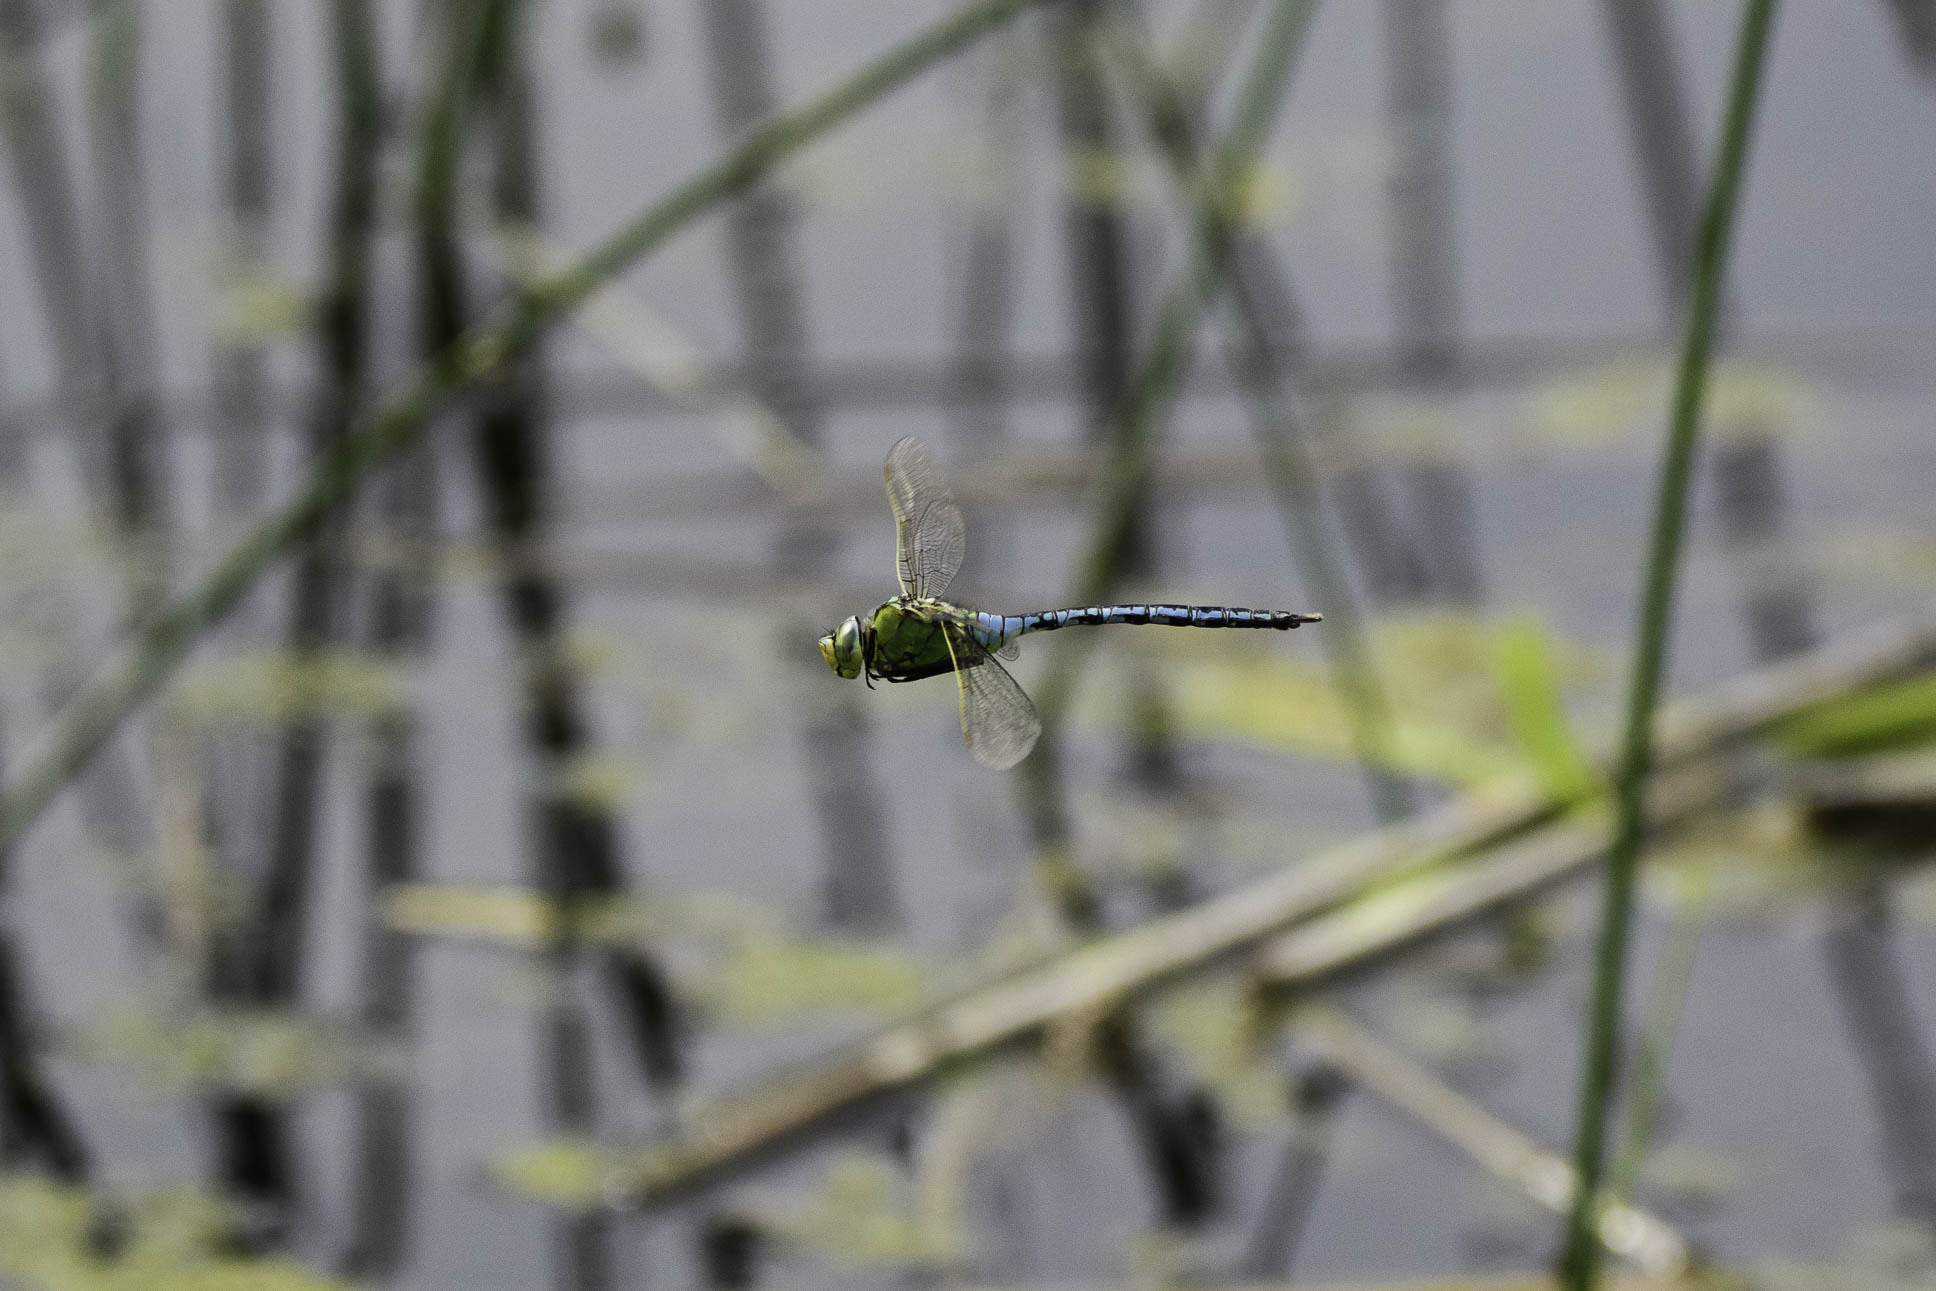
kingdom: Animalia
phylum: Arthropoda
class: Insecta
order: Odonata
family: Aeshnidae
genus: Anax
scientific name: Anax imperator
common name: Emperor dragonfly
